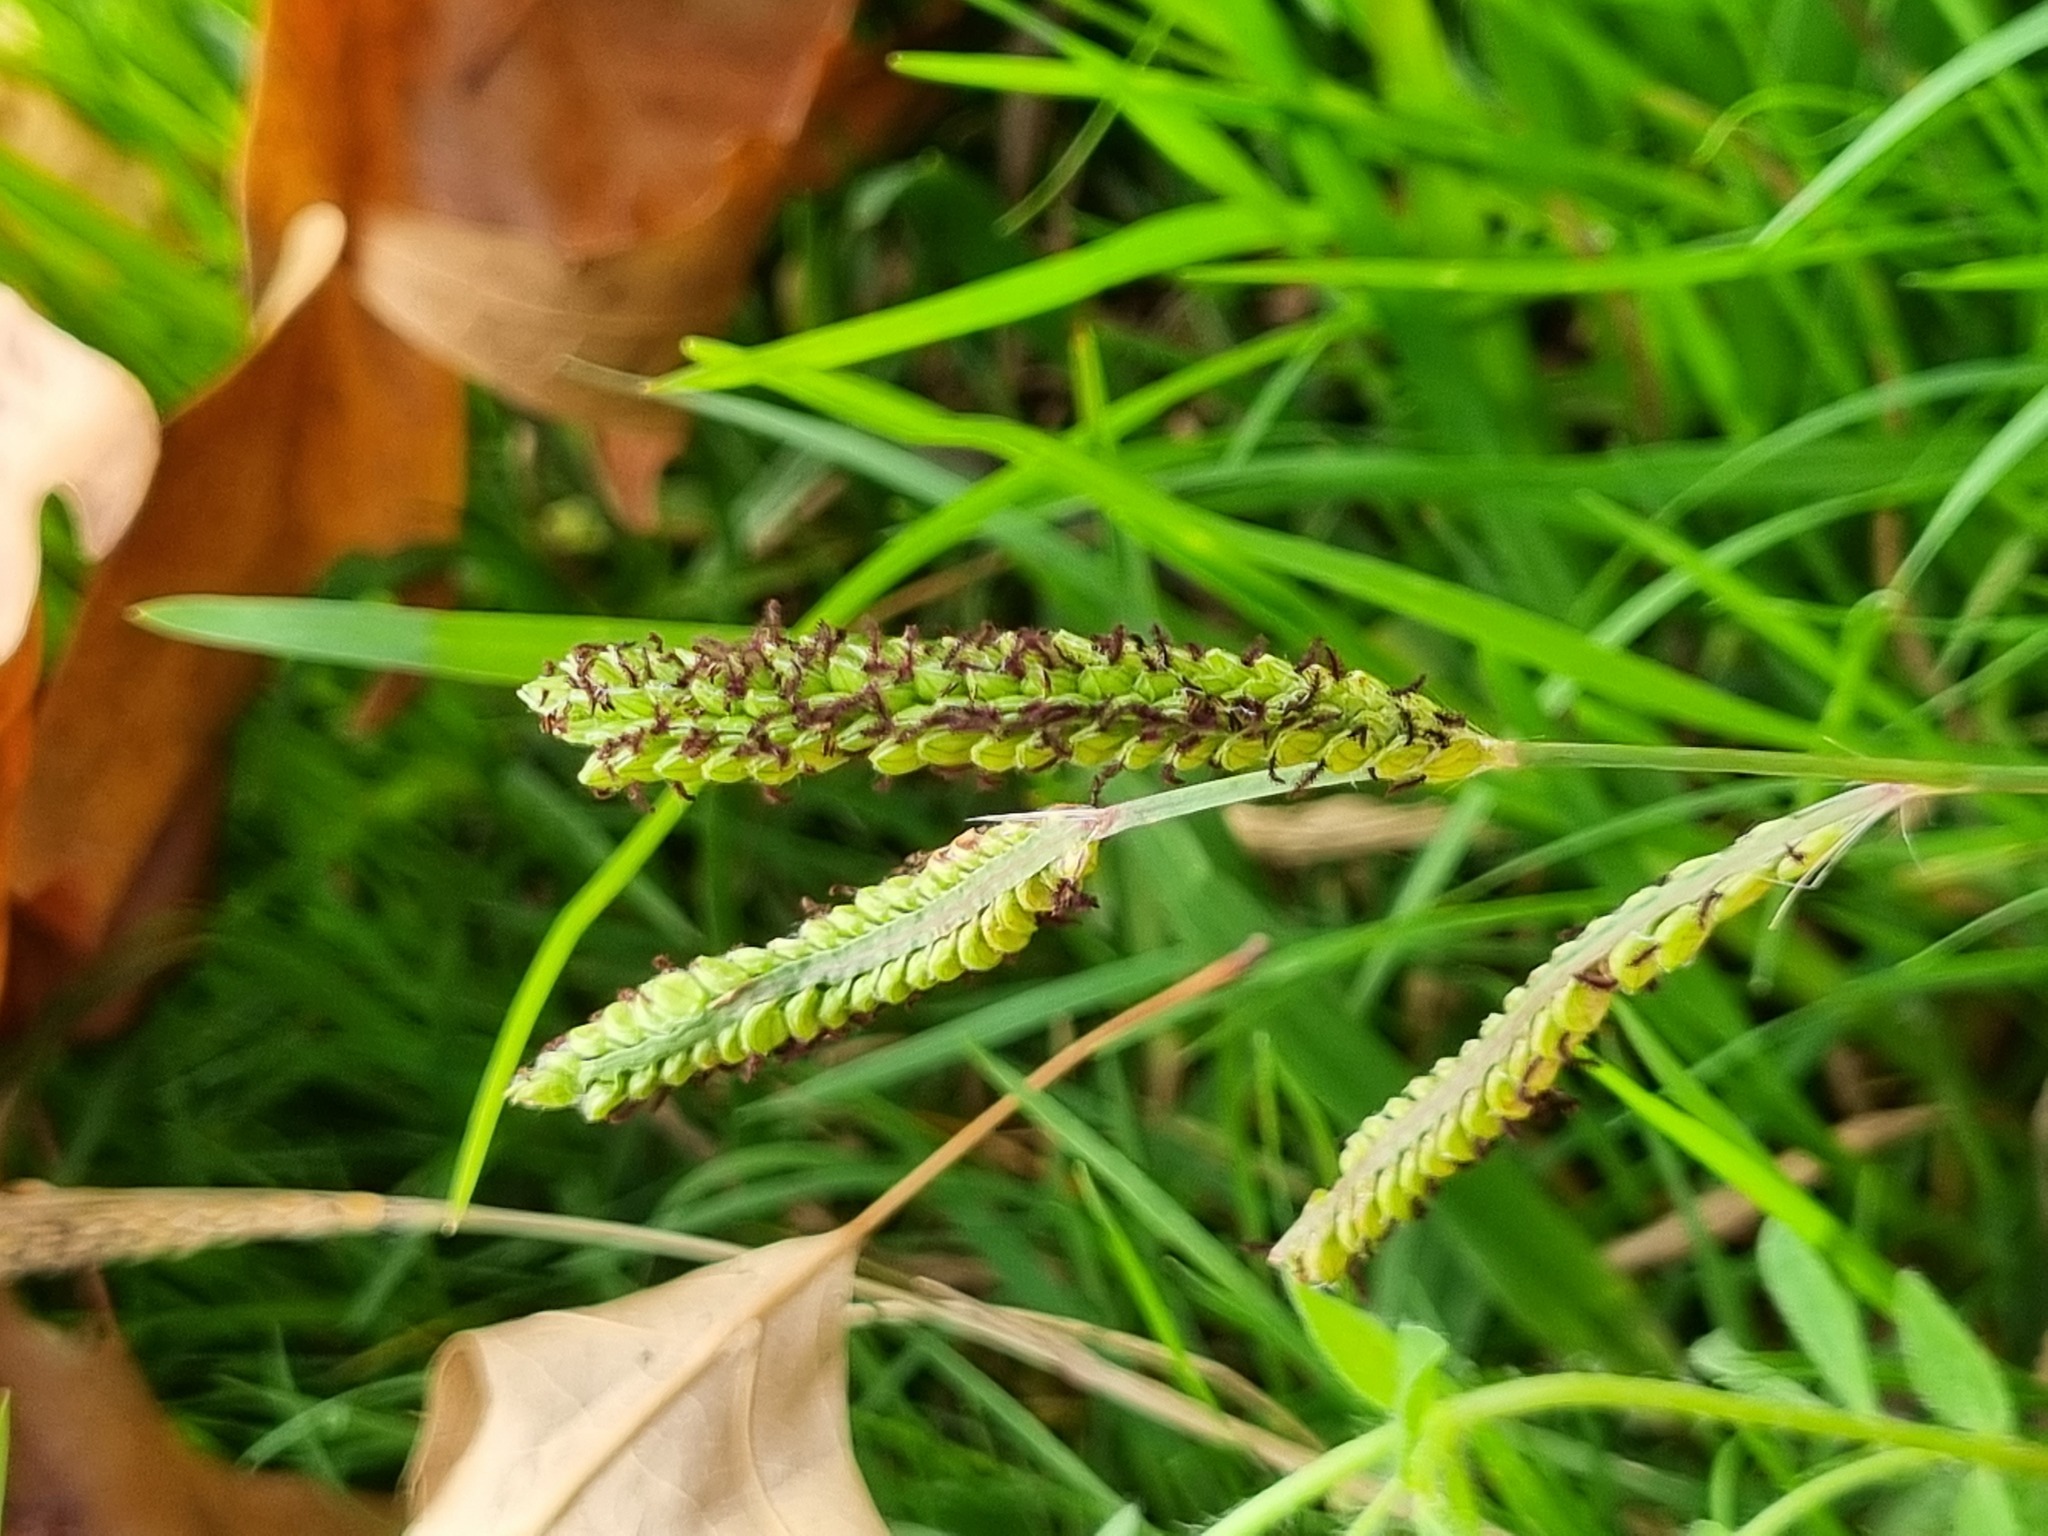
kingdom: Plantae
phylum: Tracheophyta
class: Liliopsida
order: Poales
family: Poaceae
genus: Paspalum
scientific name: Paspalum distichum
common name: Knotgrass
